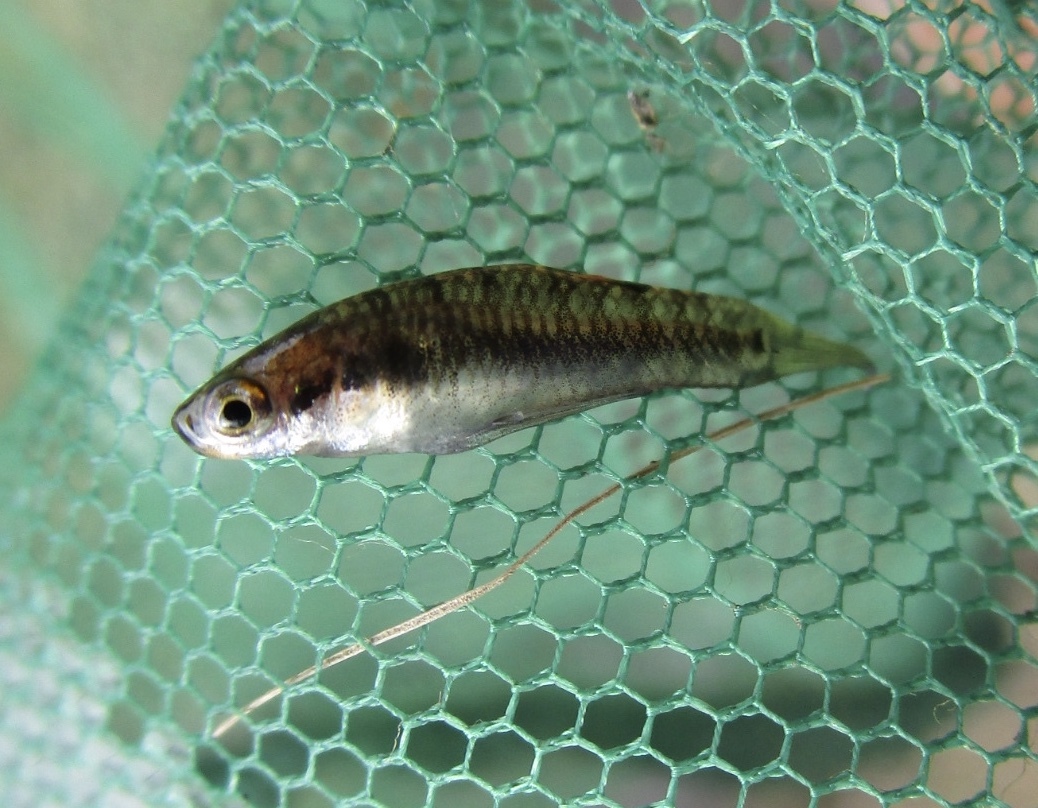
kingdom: Animalia
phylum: Chordata
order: Cyprinodontiformes
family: Poeciliidae
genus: Heterandria
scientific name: Heterandria formosa
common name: Least killifish
